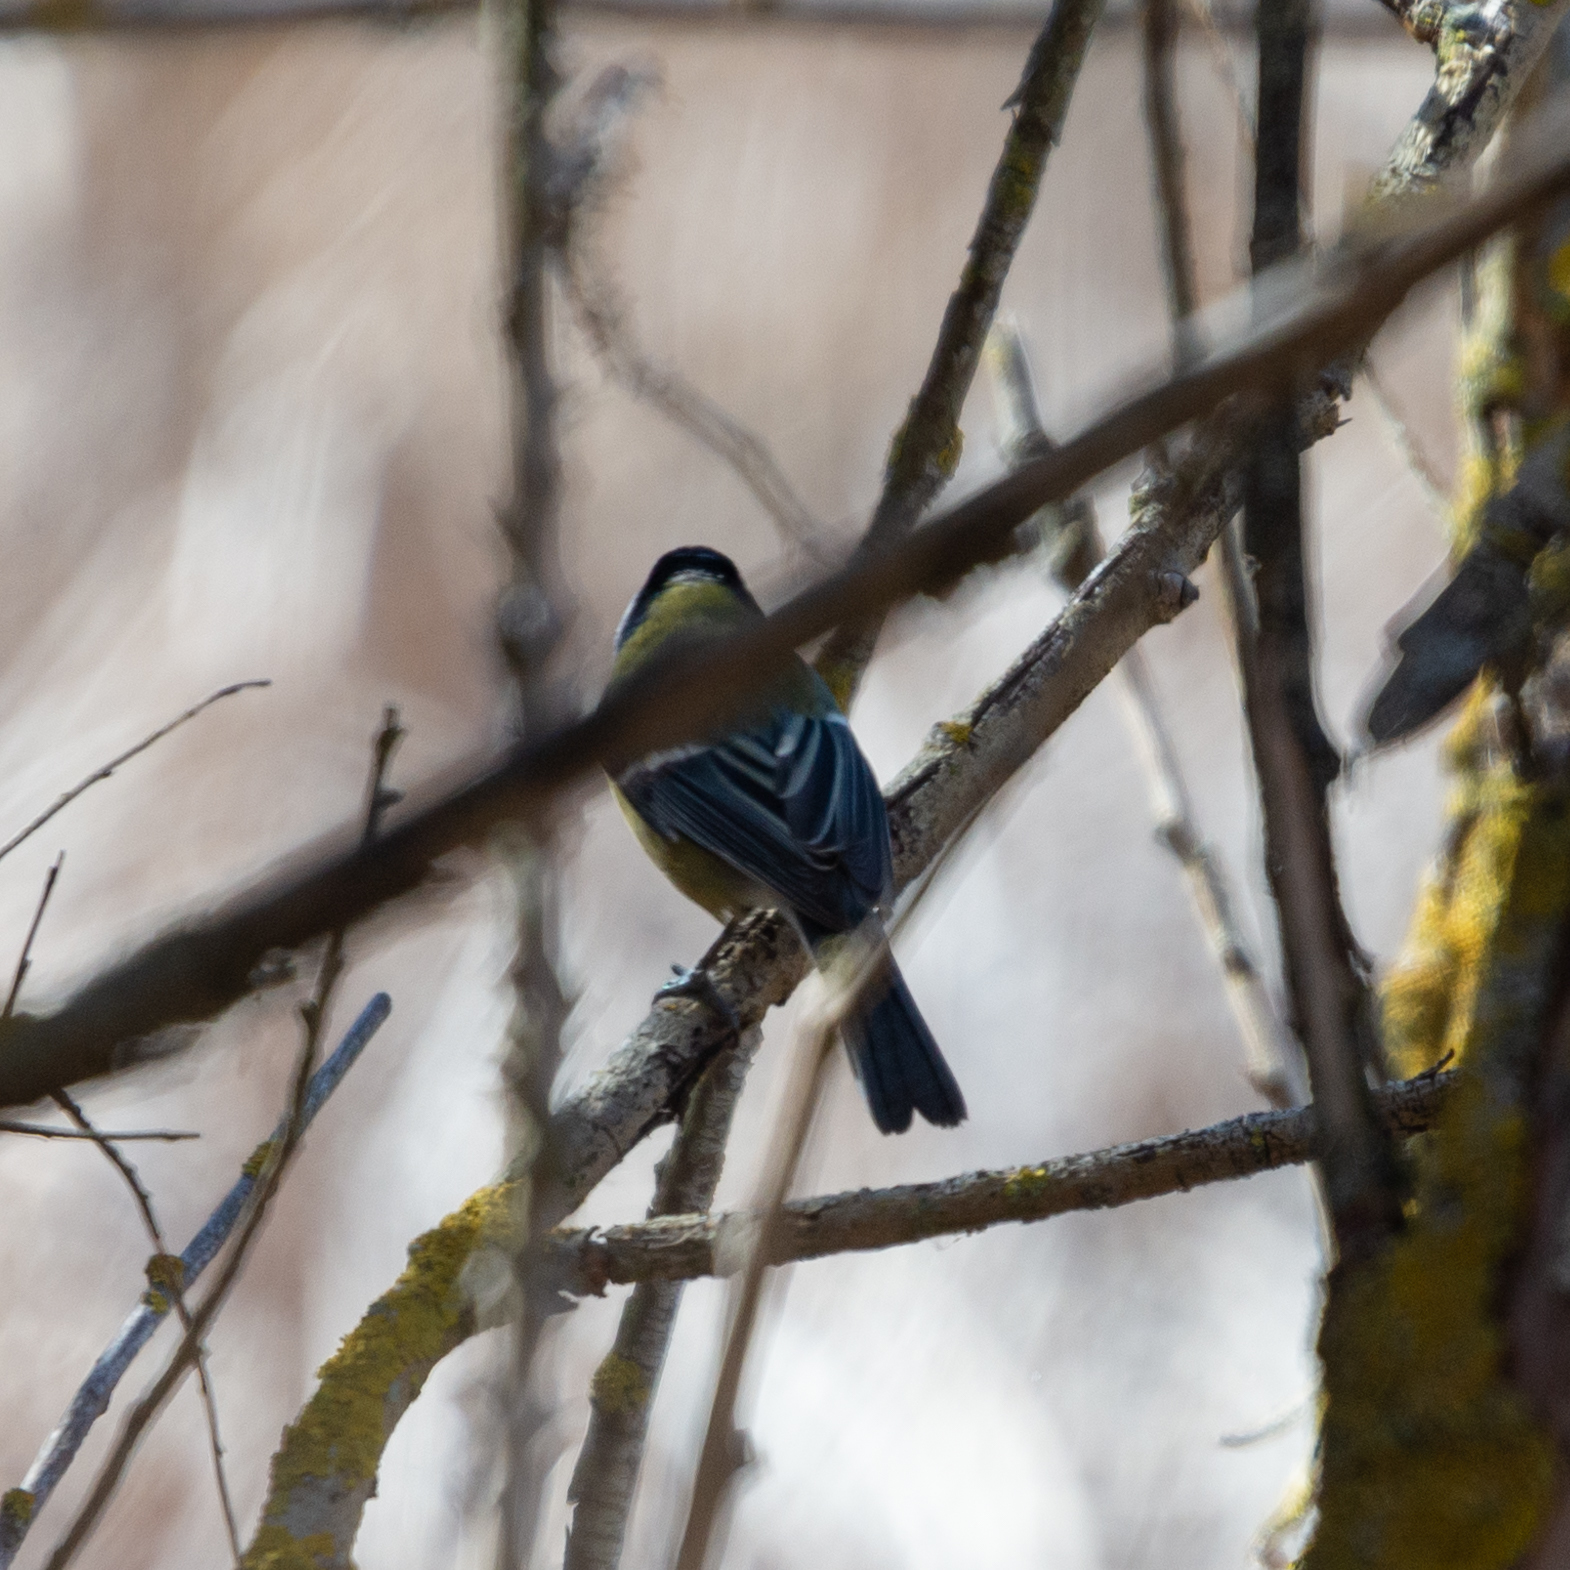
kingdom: Animalia
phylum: Chordata
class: Aves
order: Passeriformes
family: Paridae
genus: Parus
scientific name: Parus major
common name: Great tit
